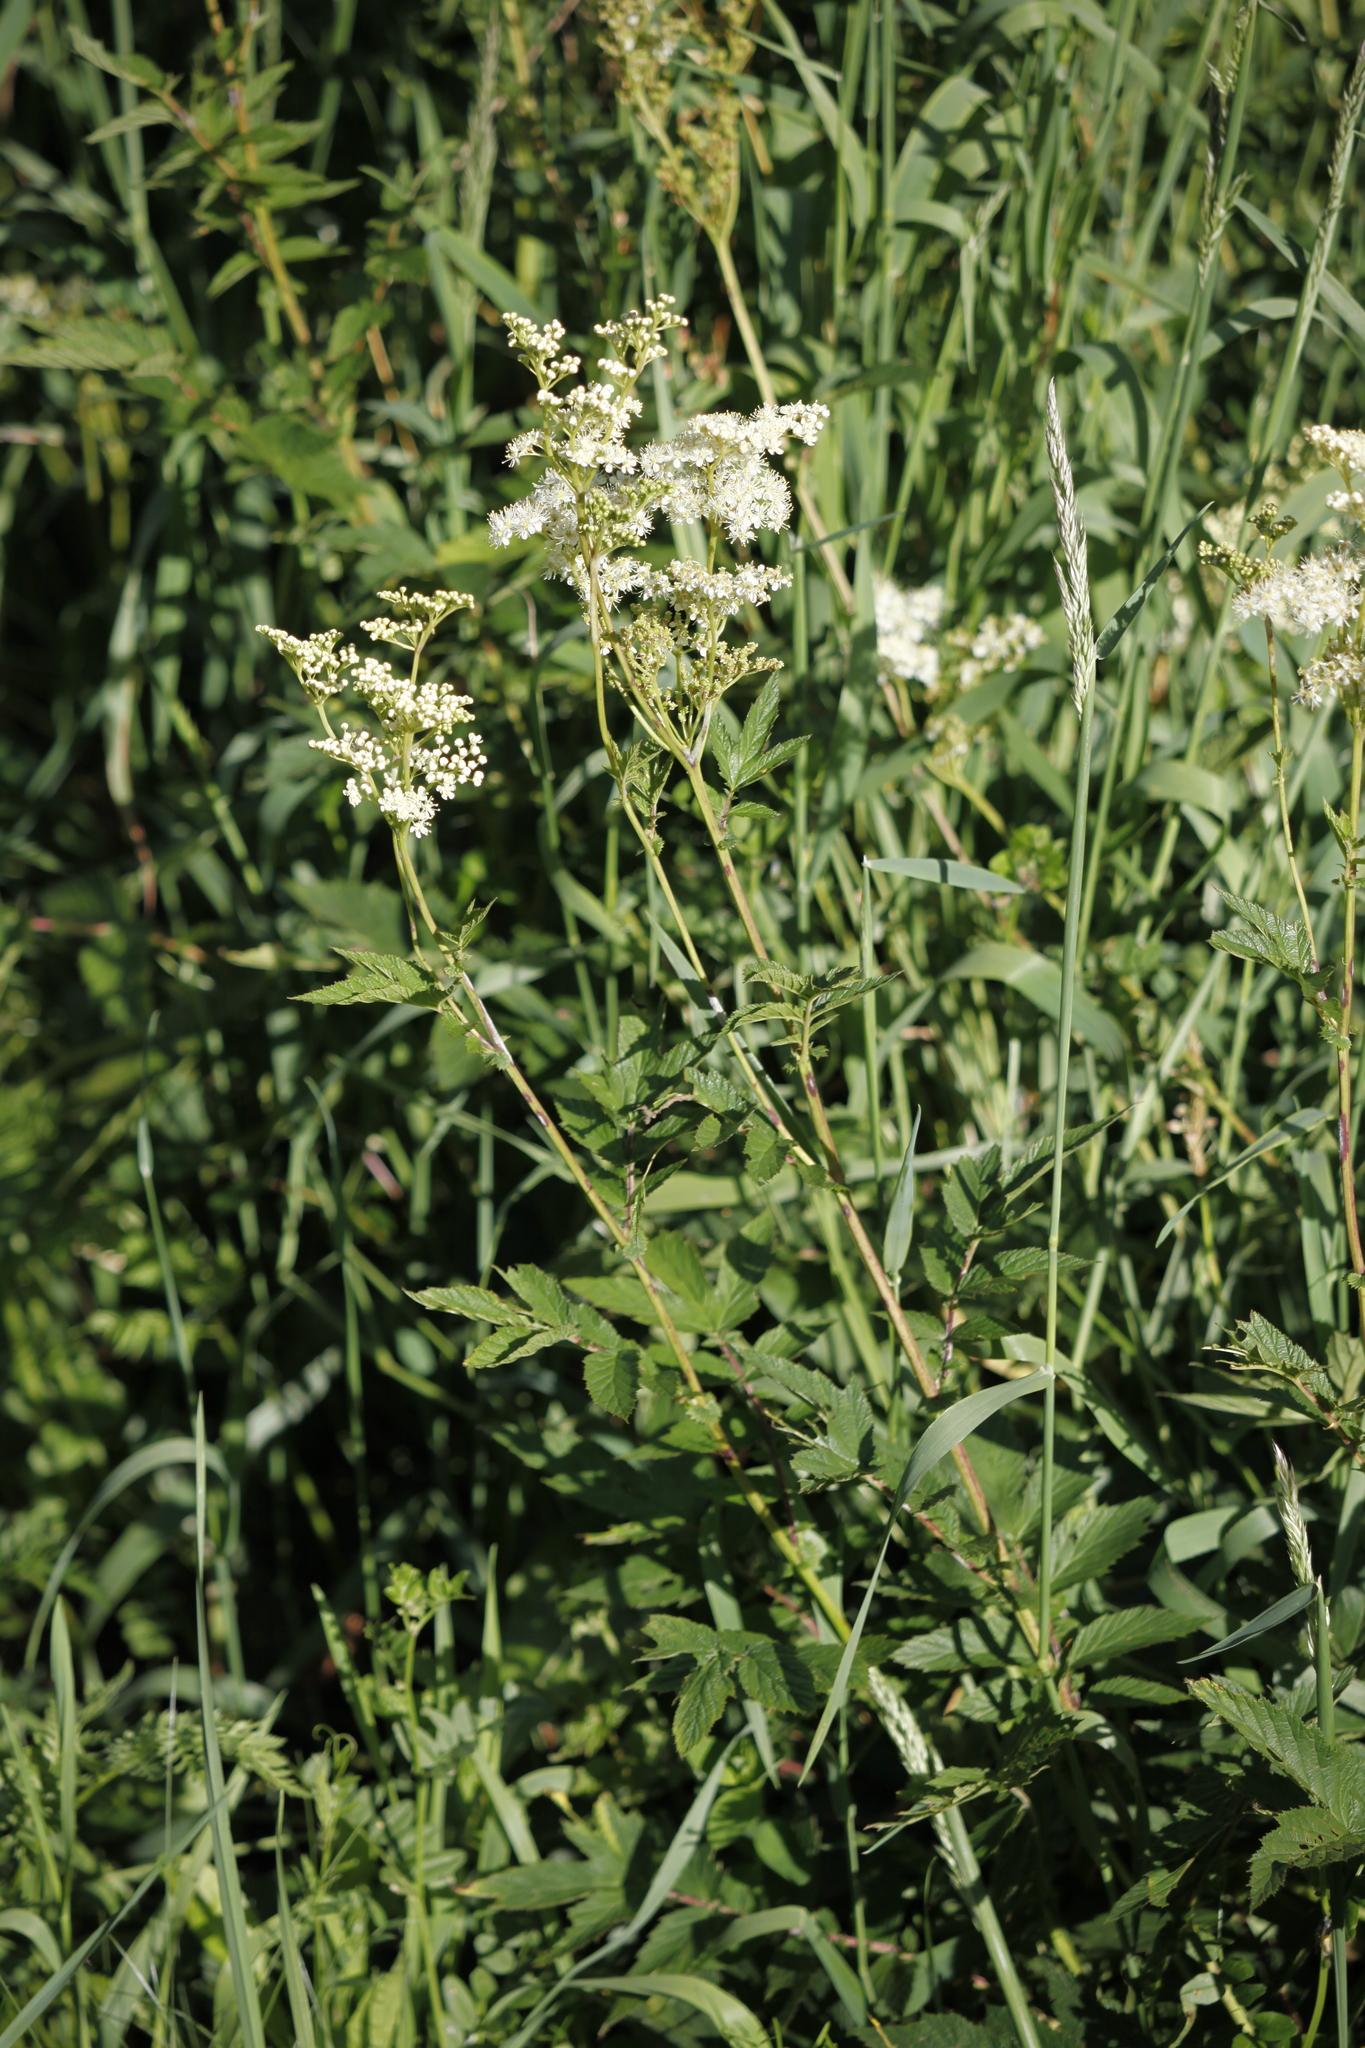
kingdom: Plantae
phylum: Tracheophyta
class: Magnoliopsida
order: Rosales
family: Rosaceae
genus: Filipendula
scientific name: Filipendula ulmaria
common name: Meadowsweet
